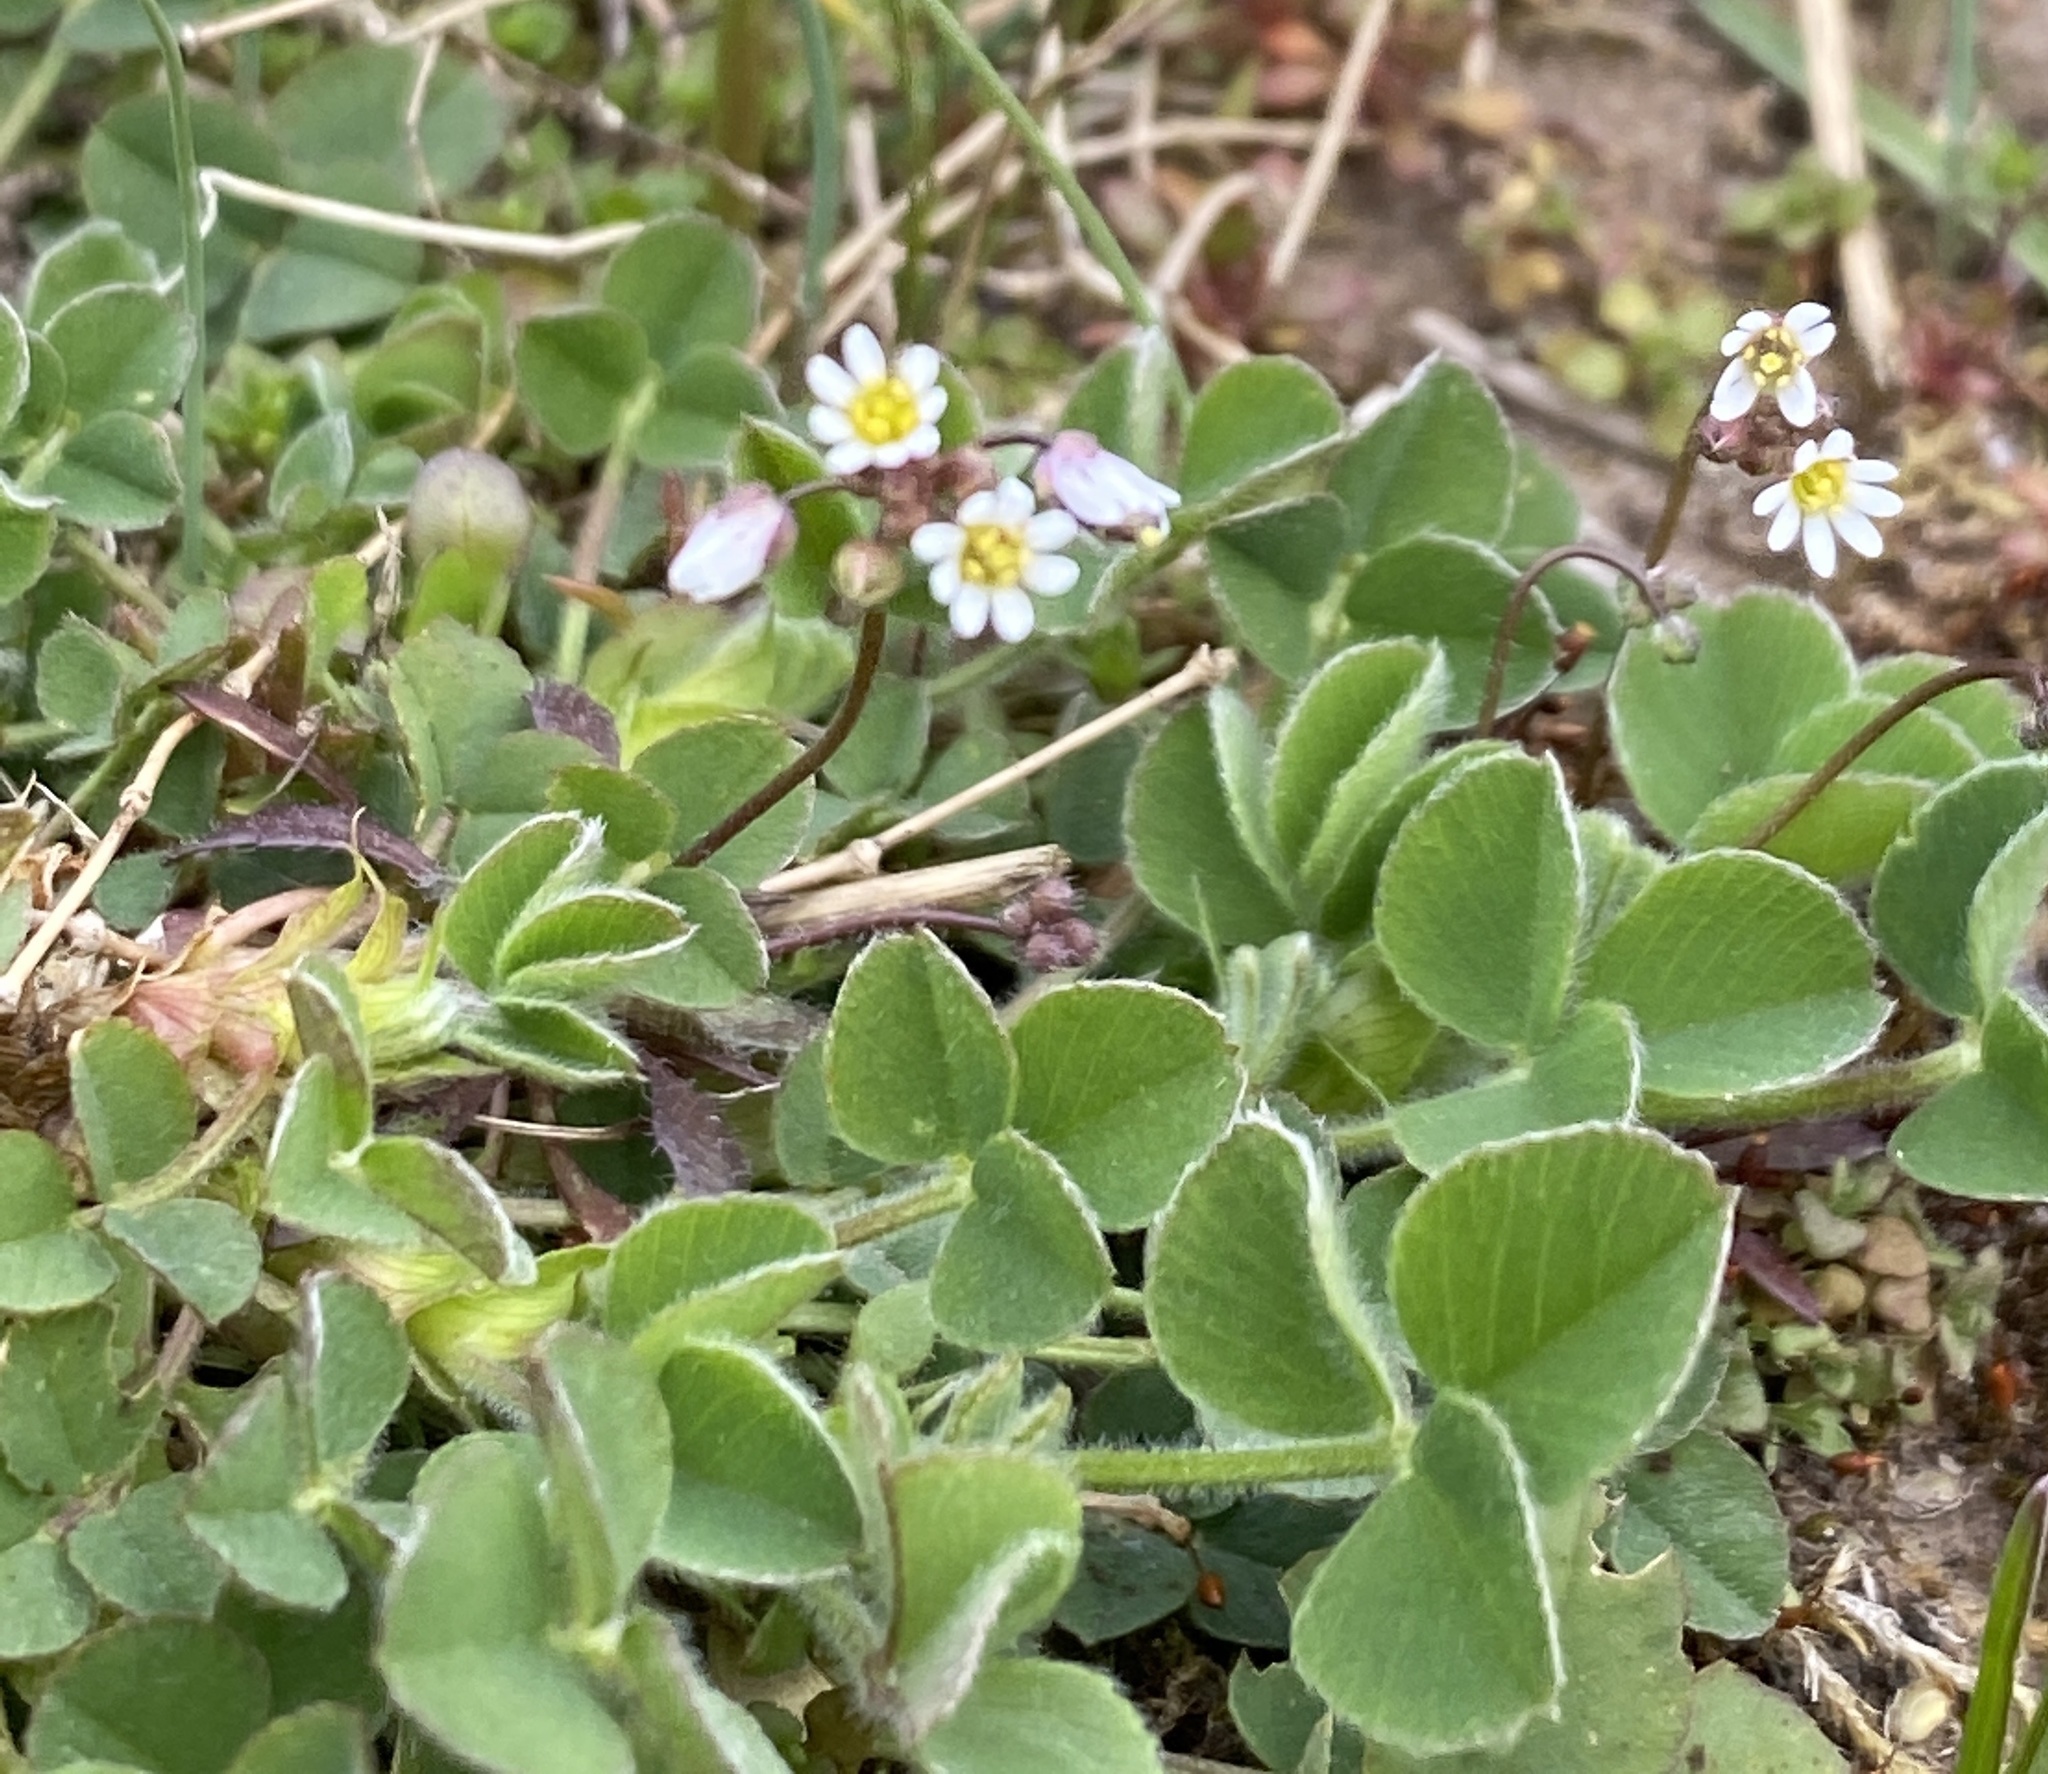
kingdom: Plantae
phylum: Tracheophyta
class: Magnoliopsida
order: Brassicales
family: Brassicaceae
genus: Draba
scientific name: Draba verna
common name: Spring draba
